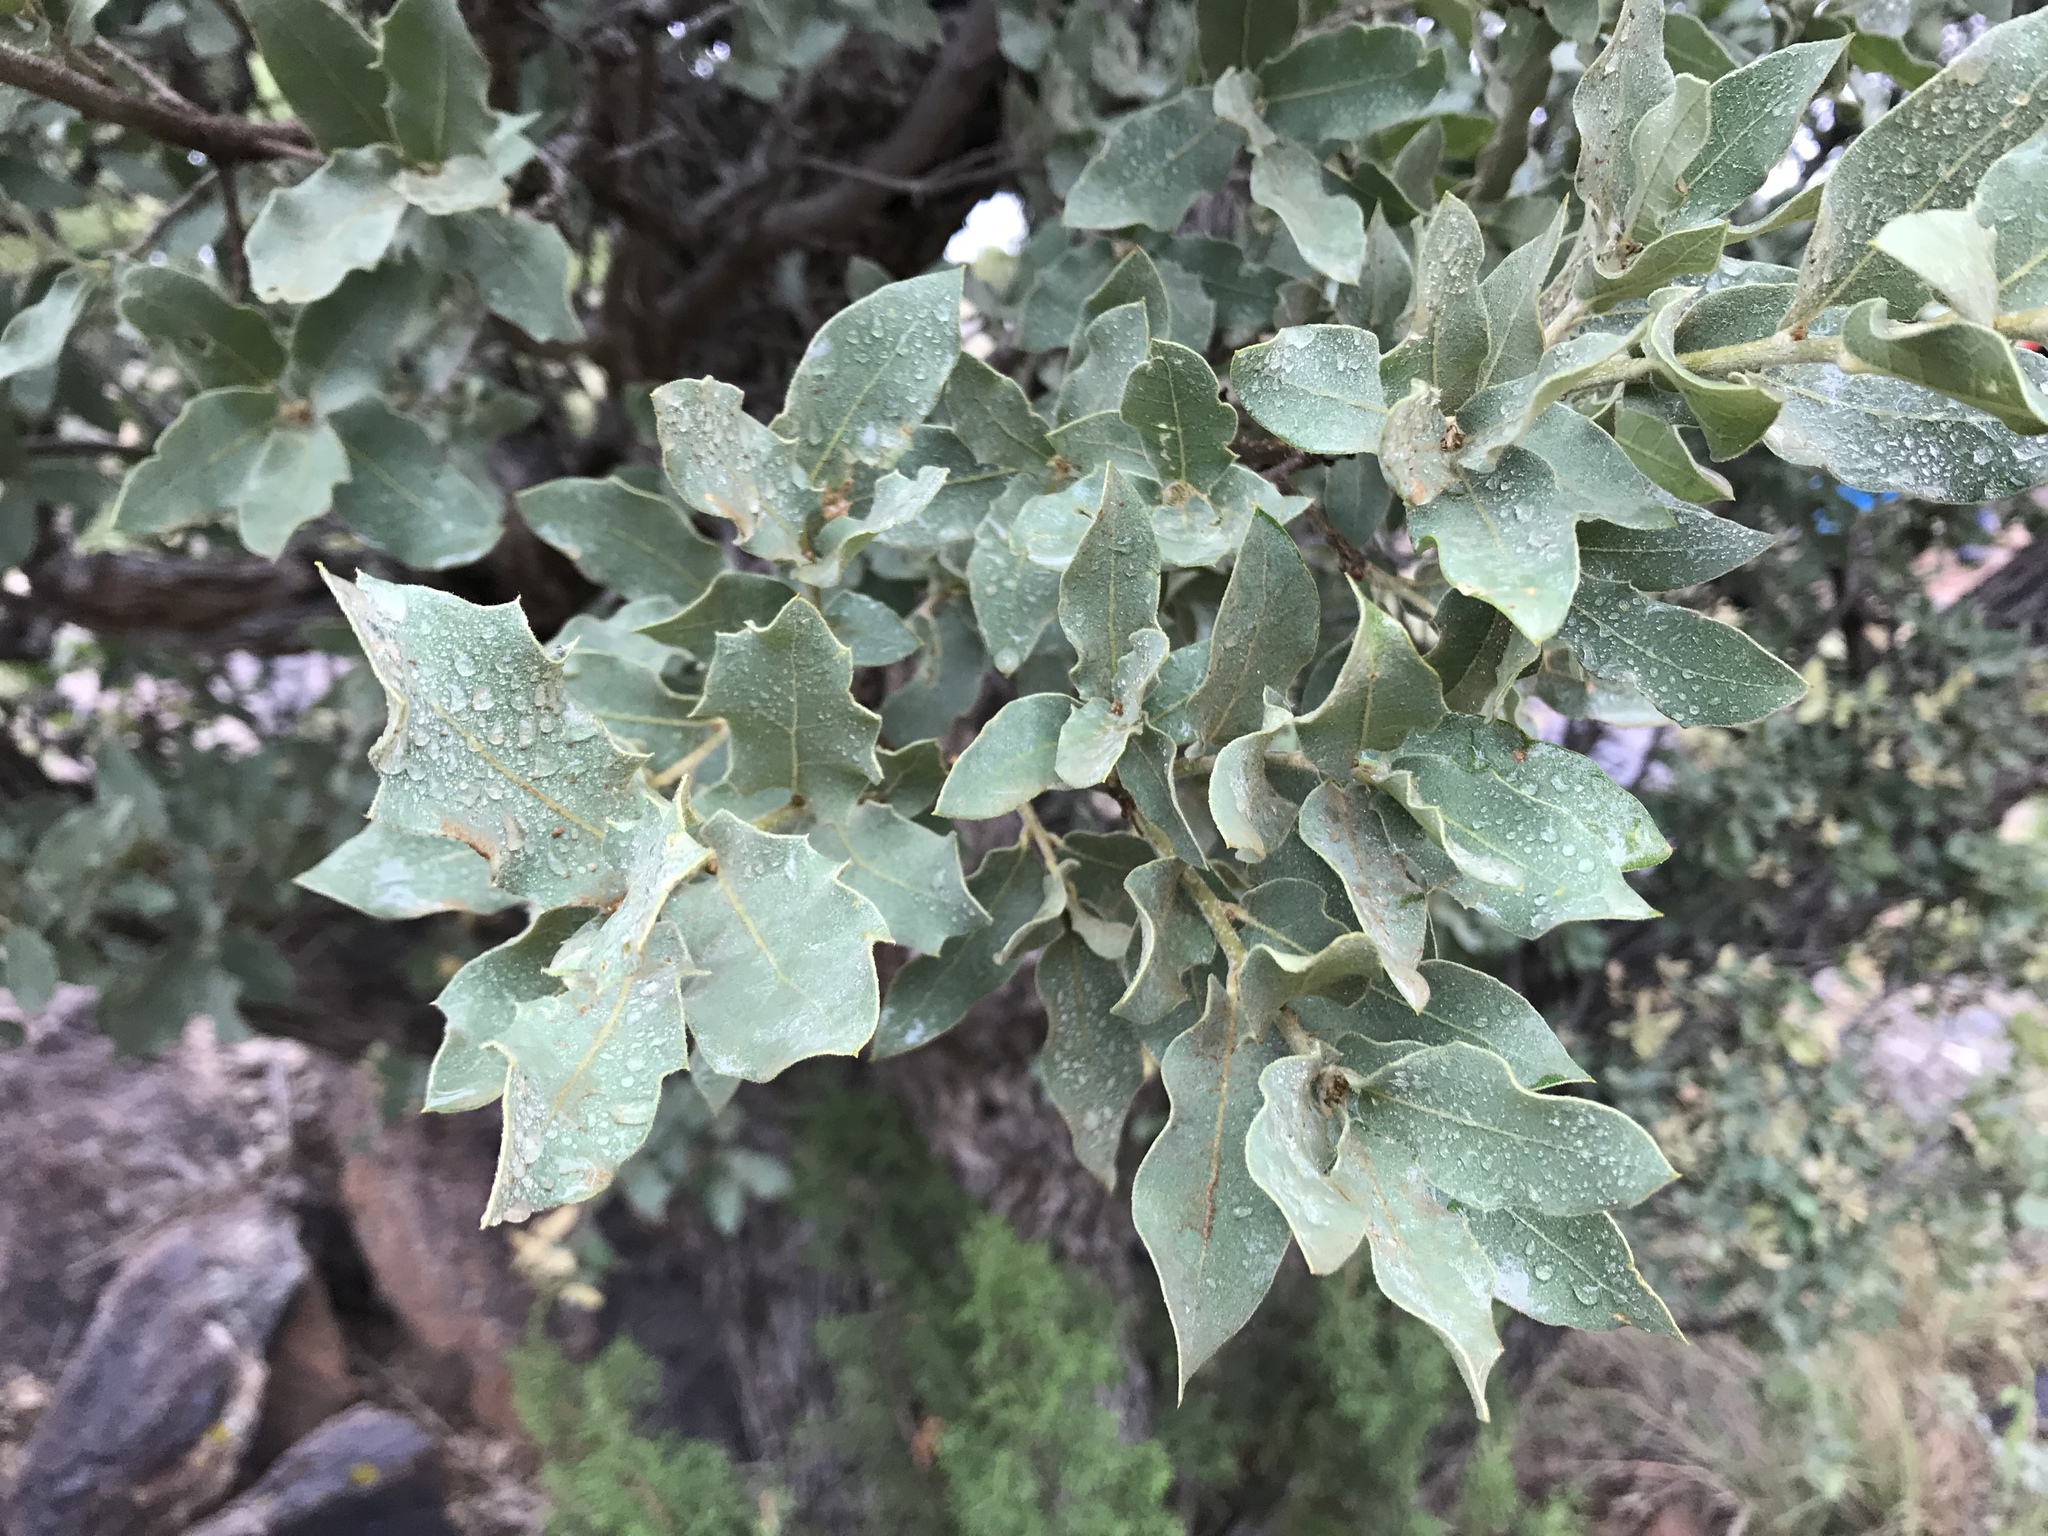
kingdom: Plantae
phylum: Tracheophyta
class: Magnoliopsida
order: Fagales
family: Fagaceae
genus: Quercus
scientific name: Quercus grisea
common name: Gray oak
